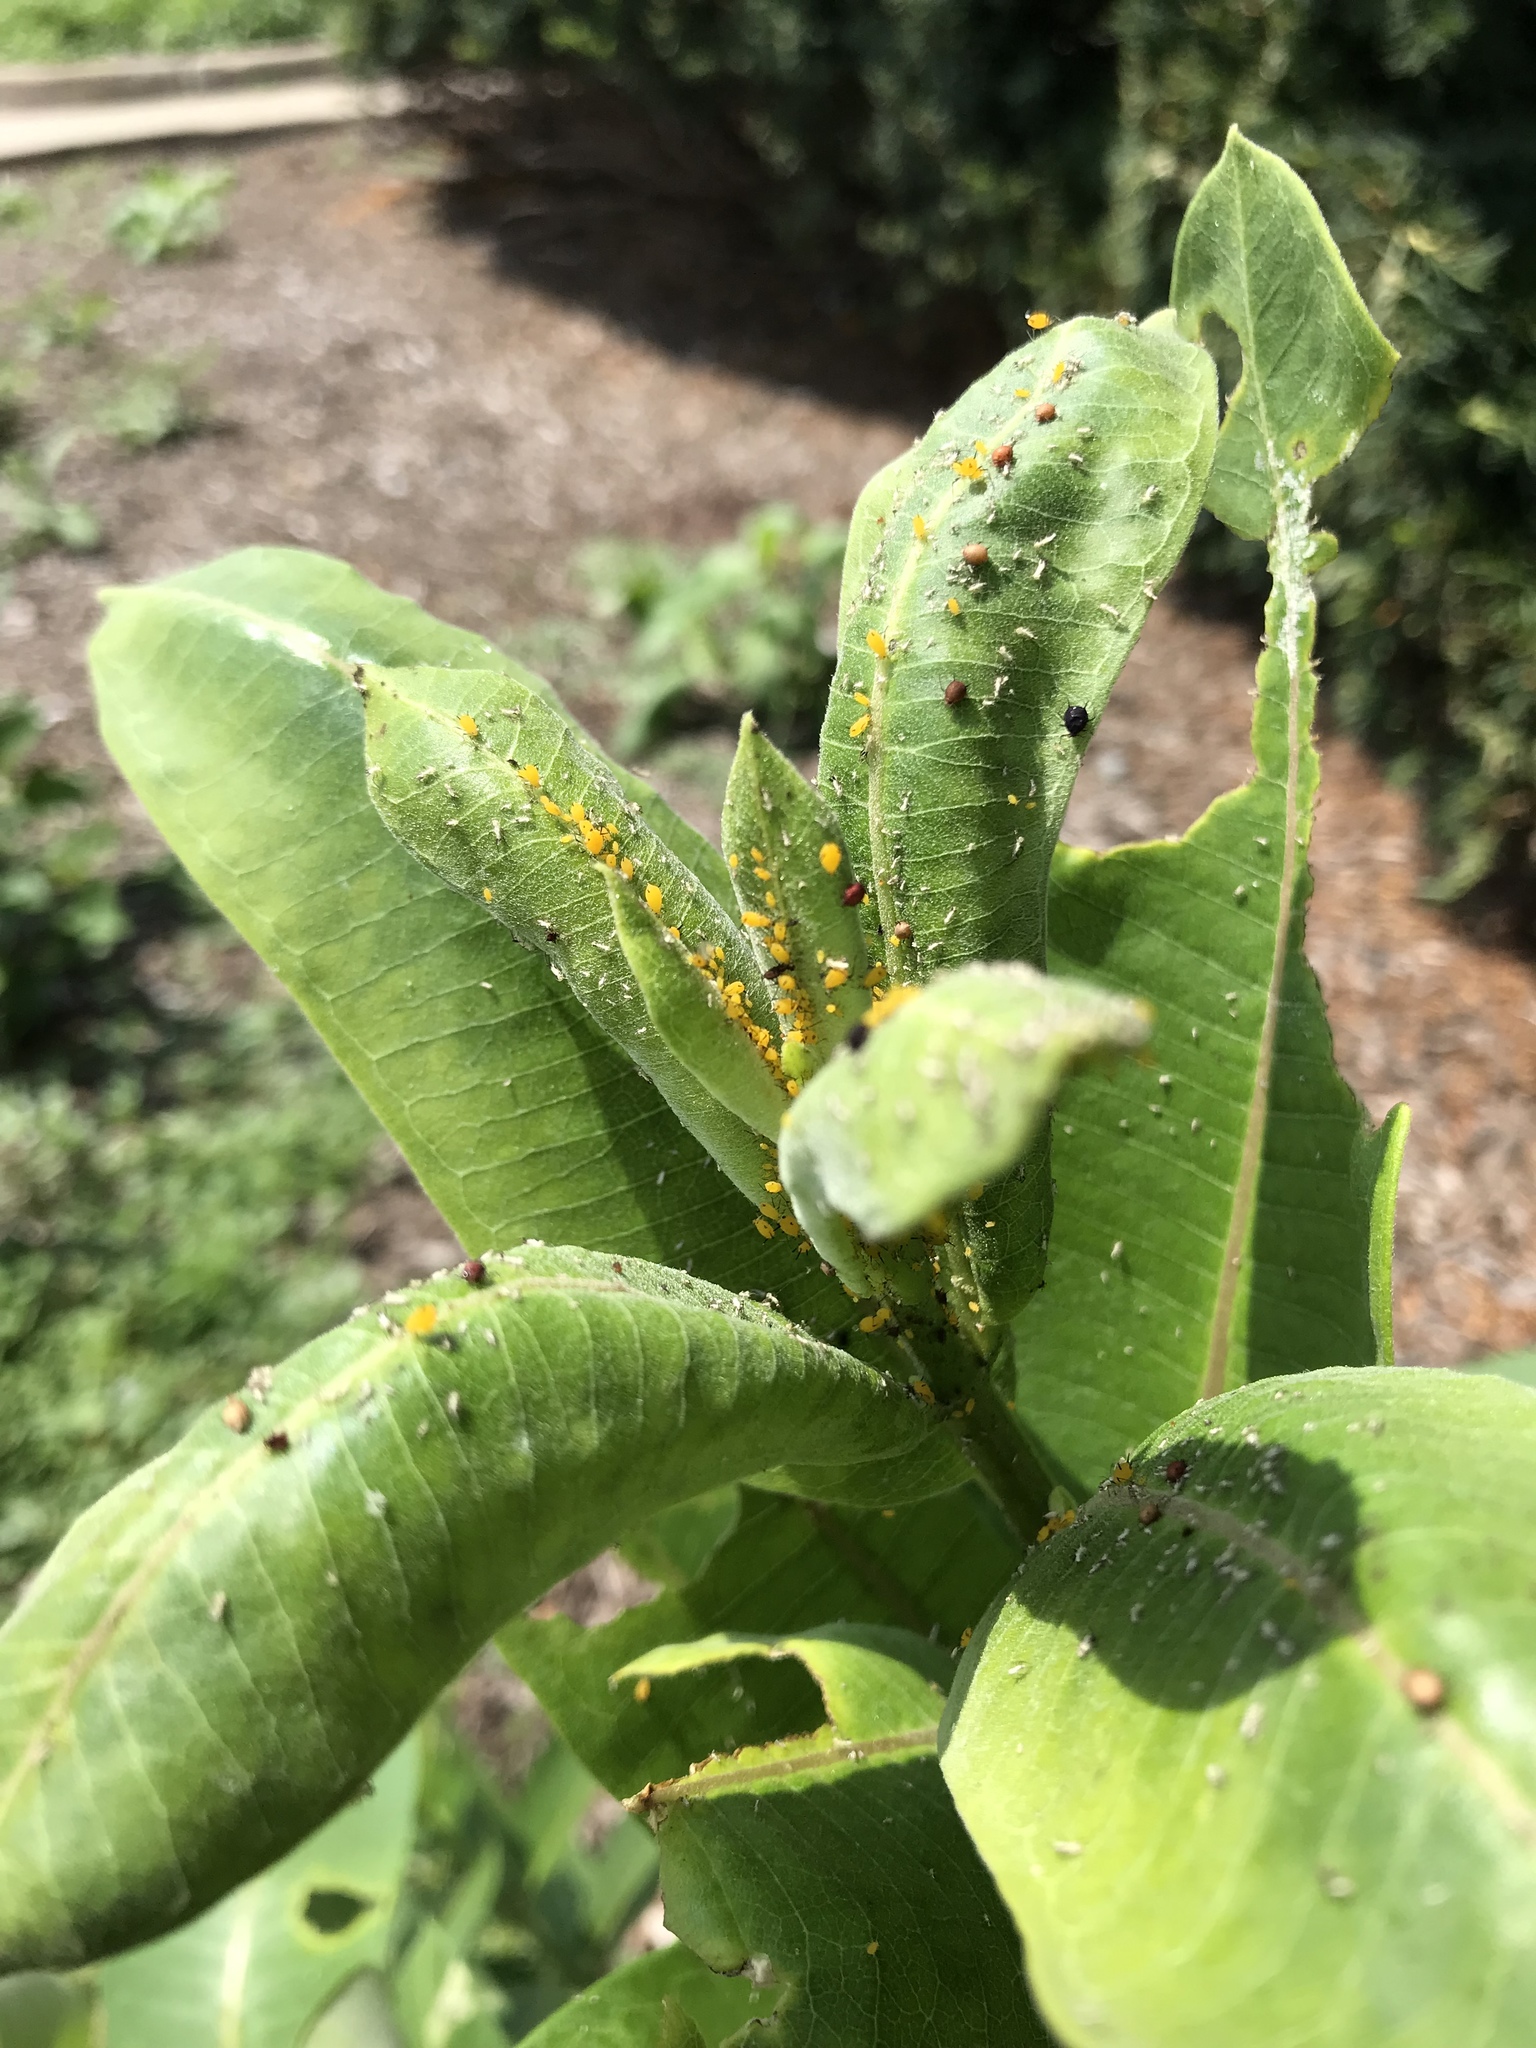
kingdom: Animalia
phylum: Arthropoda
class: Insecta
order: Hemiptera
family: Aphididae
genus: Aphis
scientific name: Aphis nerii
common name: Oleander aphid
